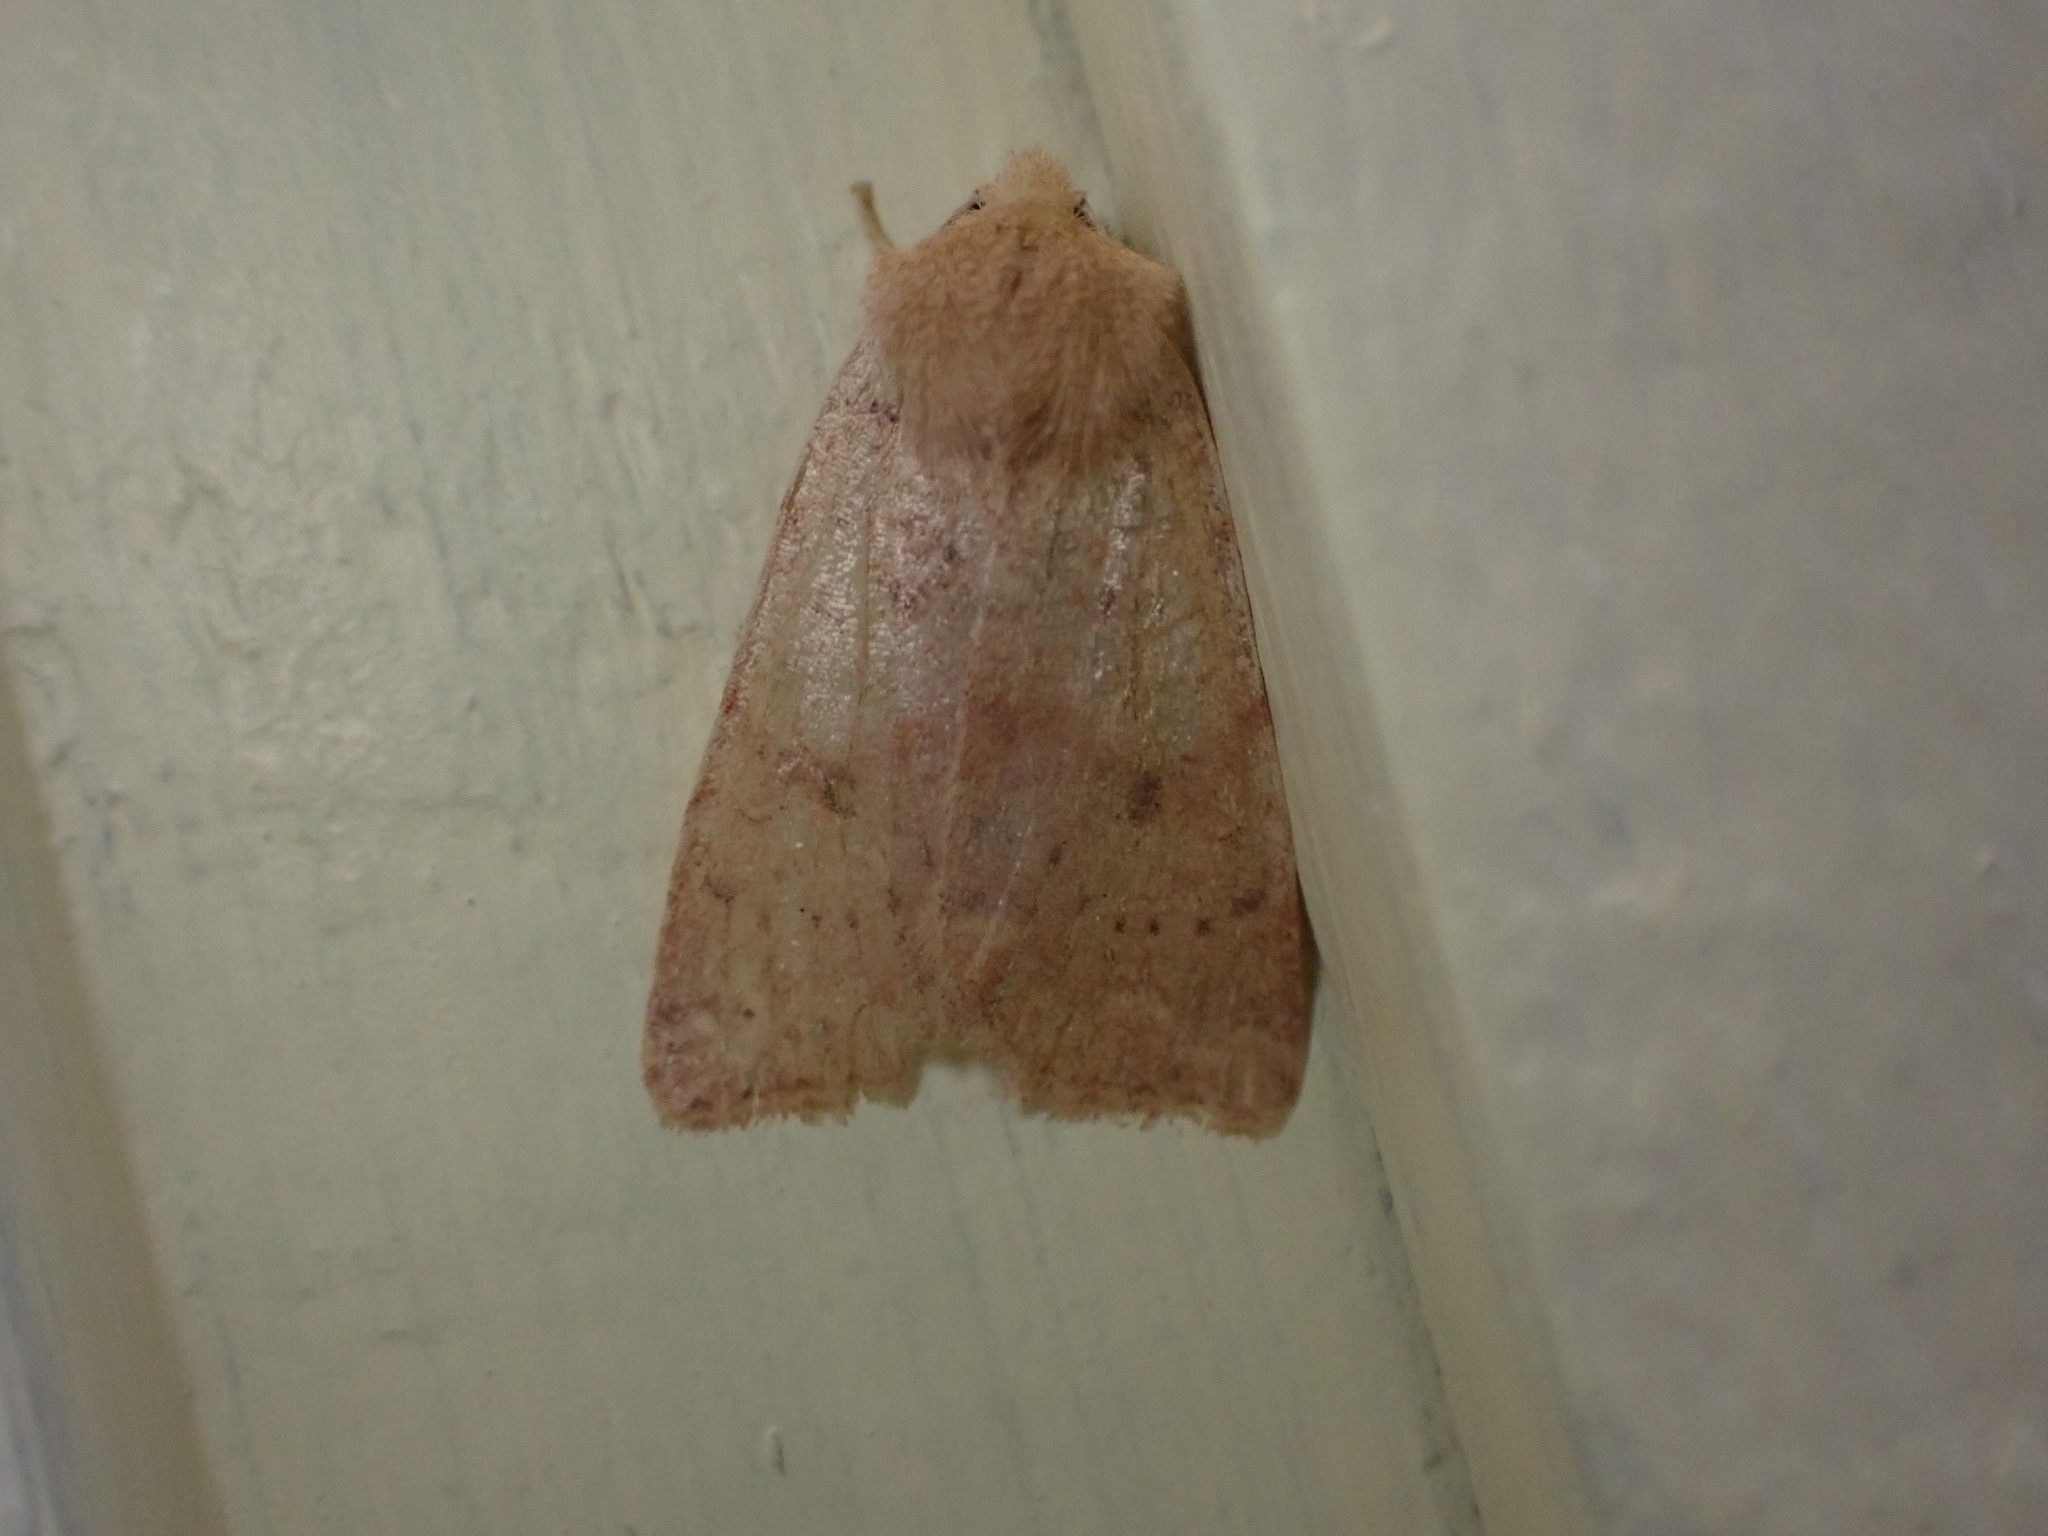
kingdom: Animalia
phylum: Arthropoda
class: Insecta
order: Lepidoptera
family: Noctuidae
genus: Agrochola
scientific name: Agrochola bicolorago
